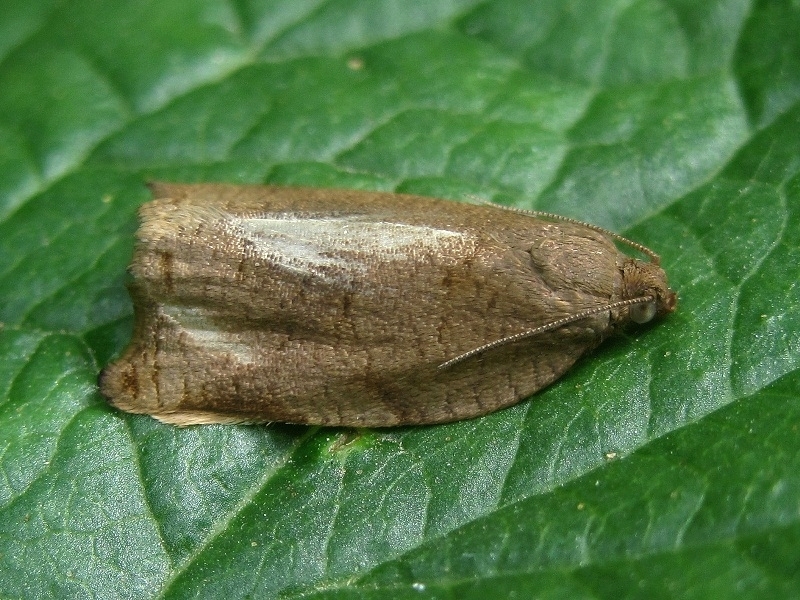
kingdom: Animalia
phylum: Arthropoda
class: Insecta
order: Lepidoptera
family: Tortricidae
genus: Archips
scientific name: Archips rosana
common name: Rose tortrix
